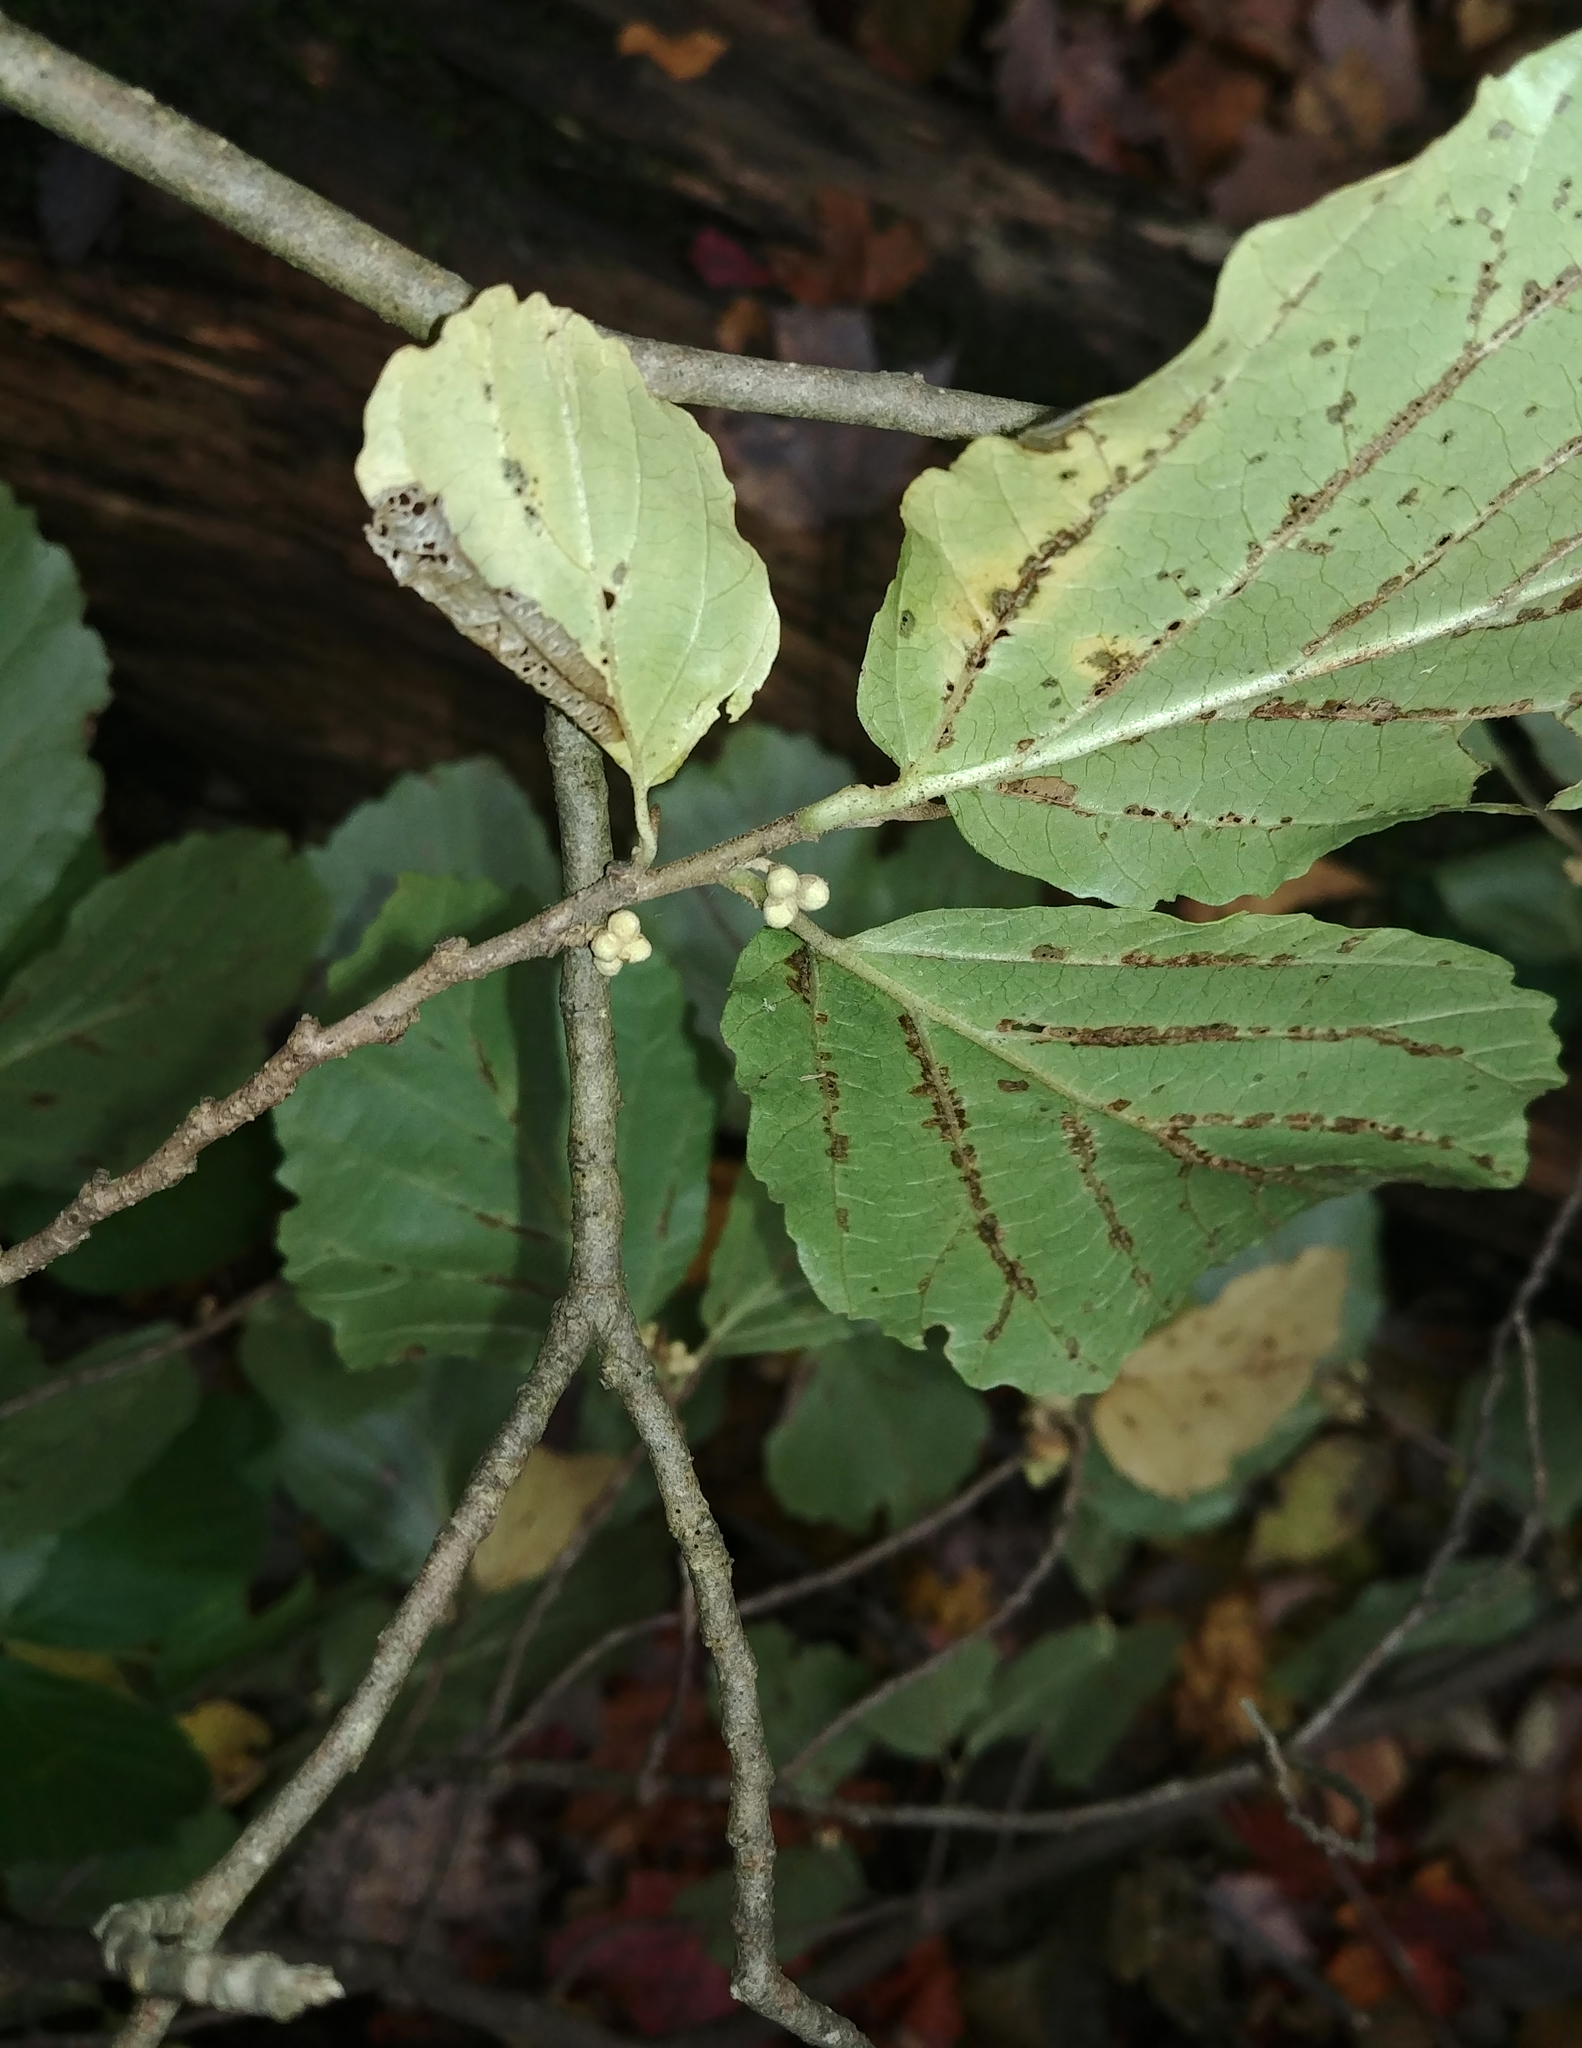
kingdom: Plantae
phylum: Tracheophyta
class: Magnoliopsida
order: Saxifragales
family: Hamamelidaceae
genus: Hamamelis
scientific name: Hamamelis virginiana
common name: Witch-hazel
